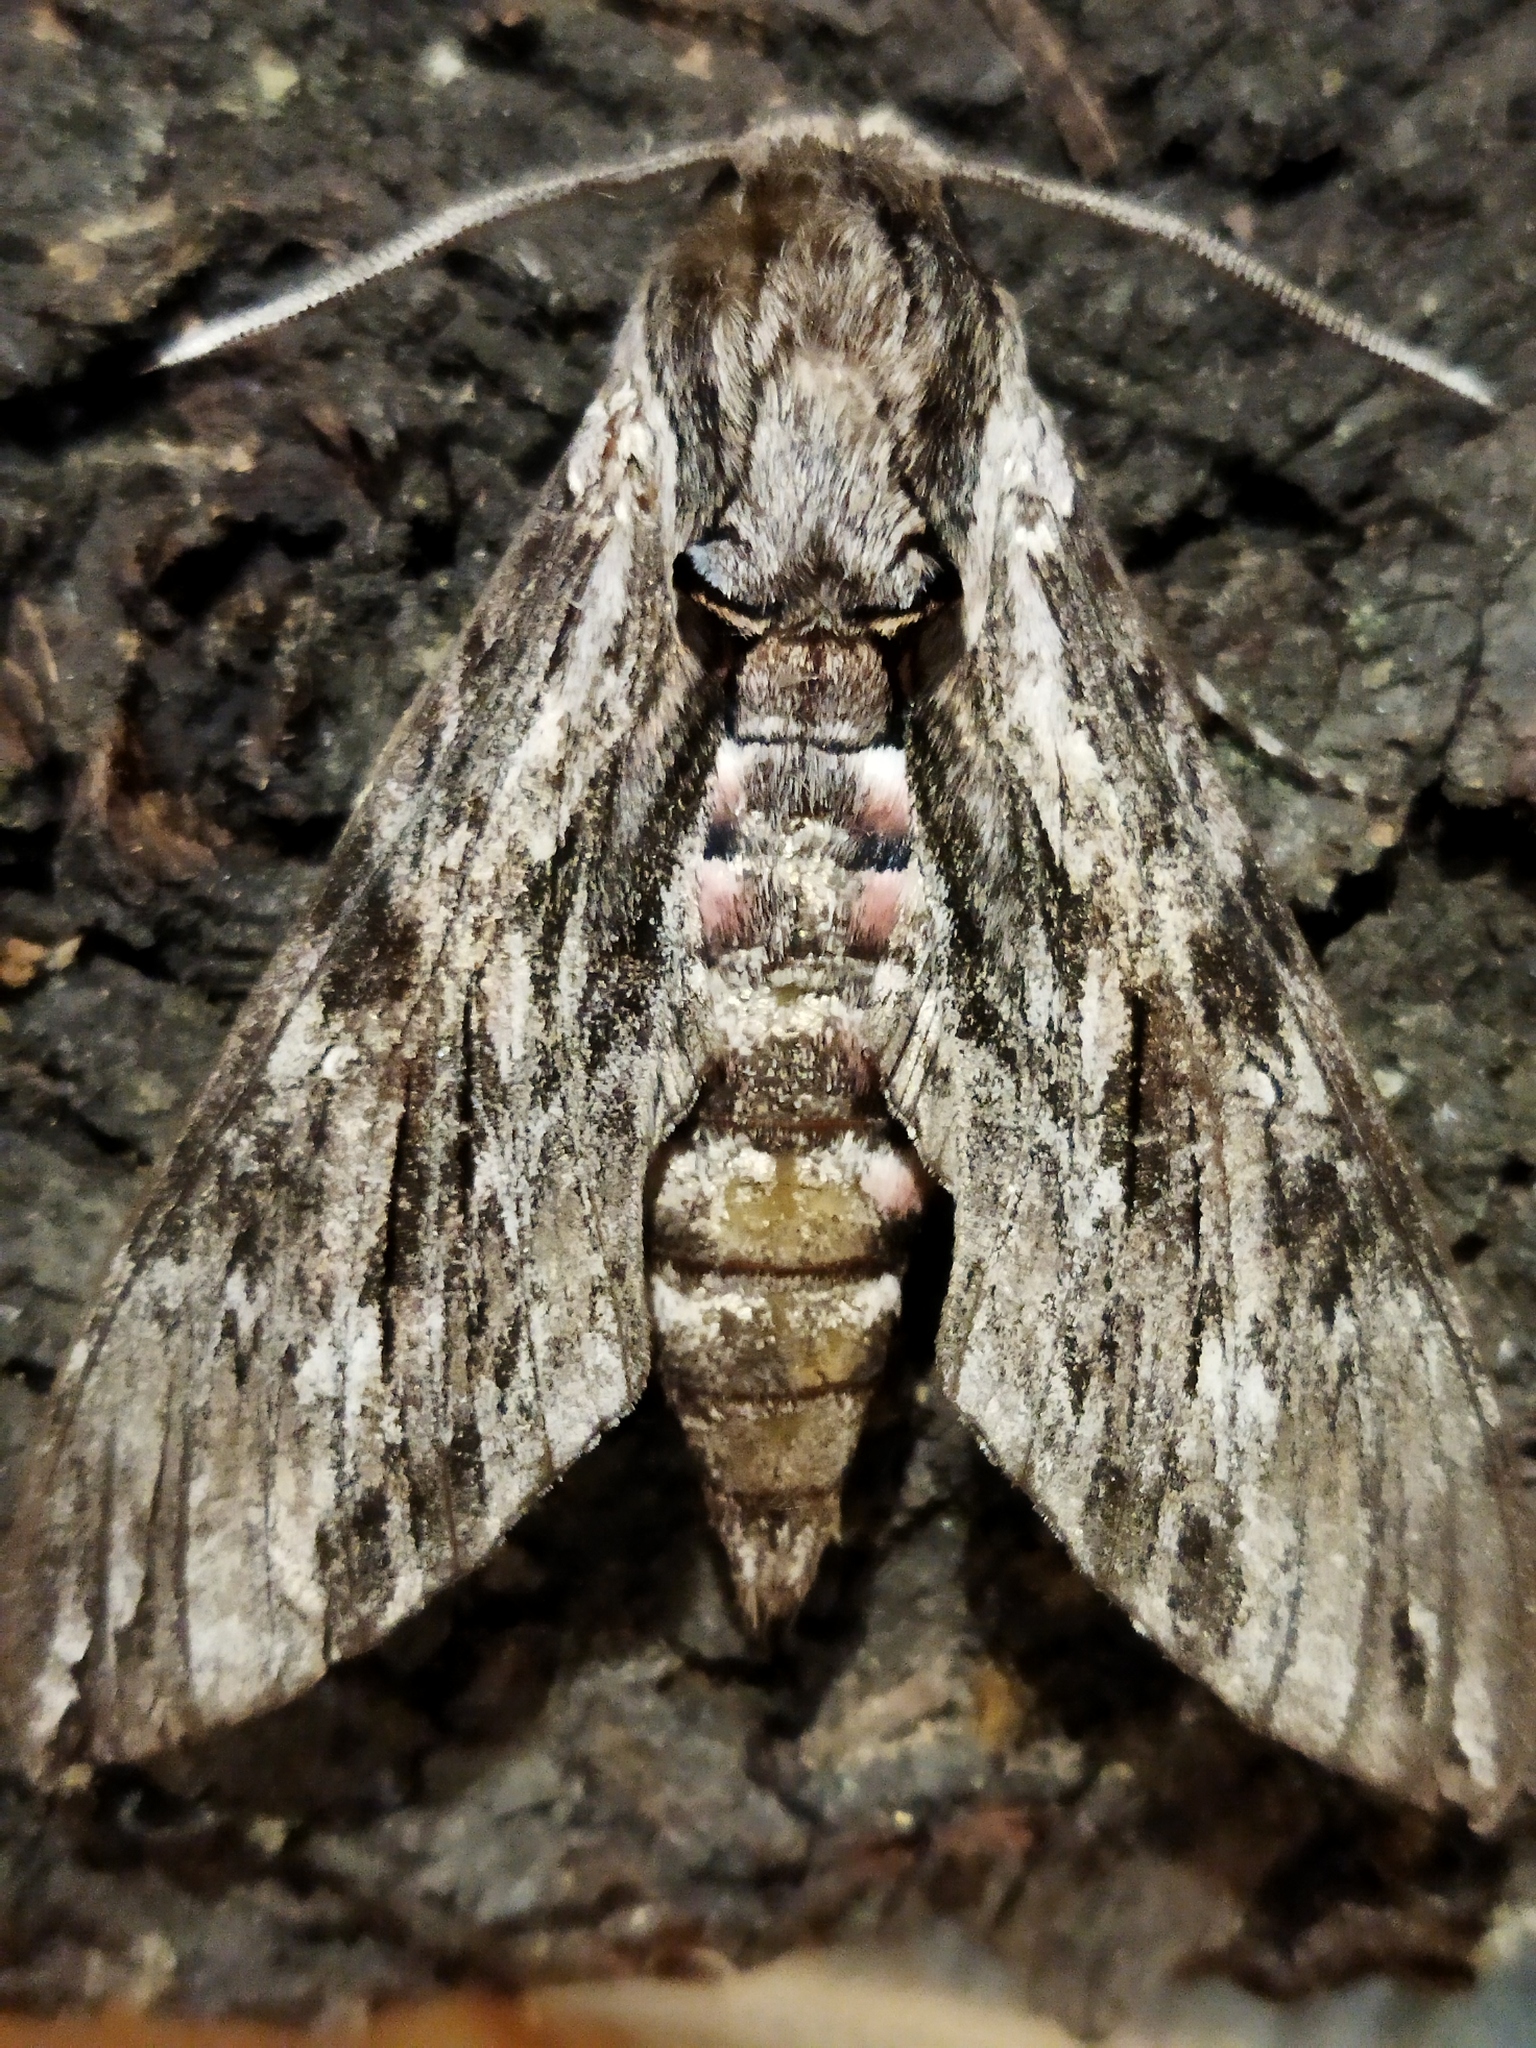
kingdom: Animalia
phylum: Arthropoda
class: Insecta
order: Lepidoptera
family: Sphingidae
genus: Agrius
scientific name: Agrius convolvuli
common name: Convolvulus hawkmoth
